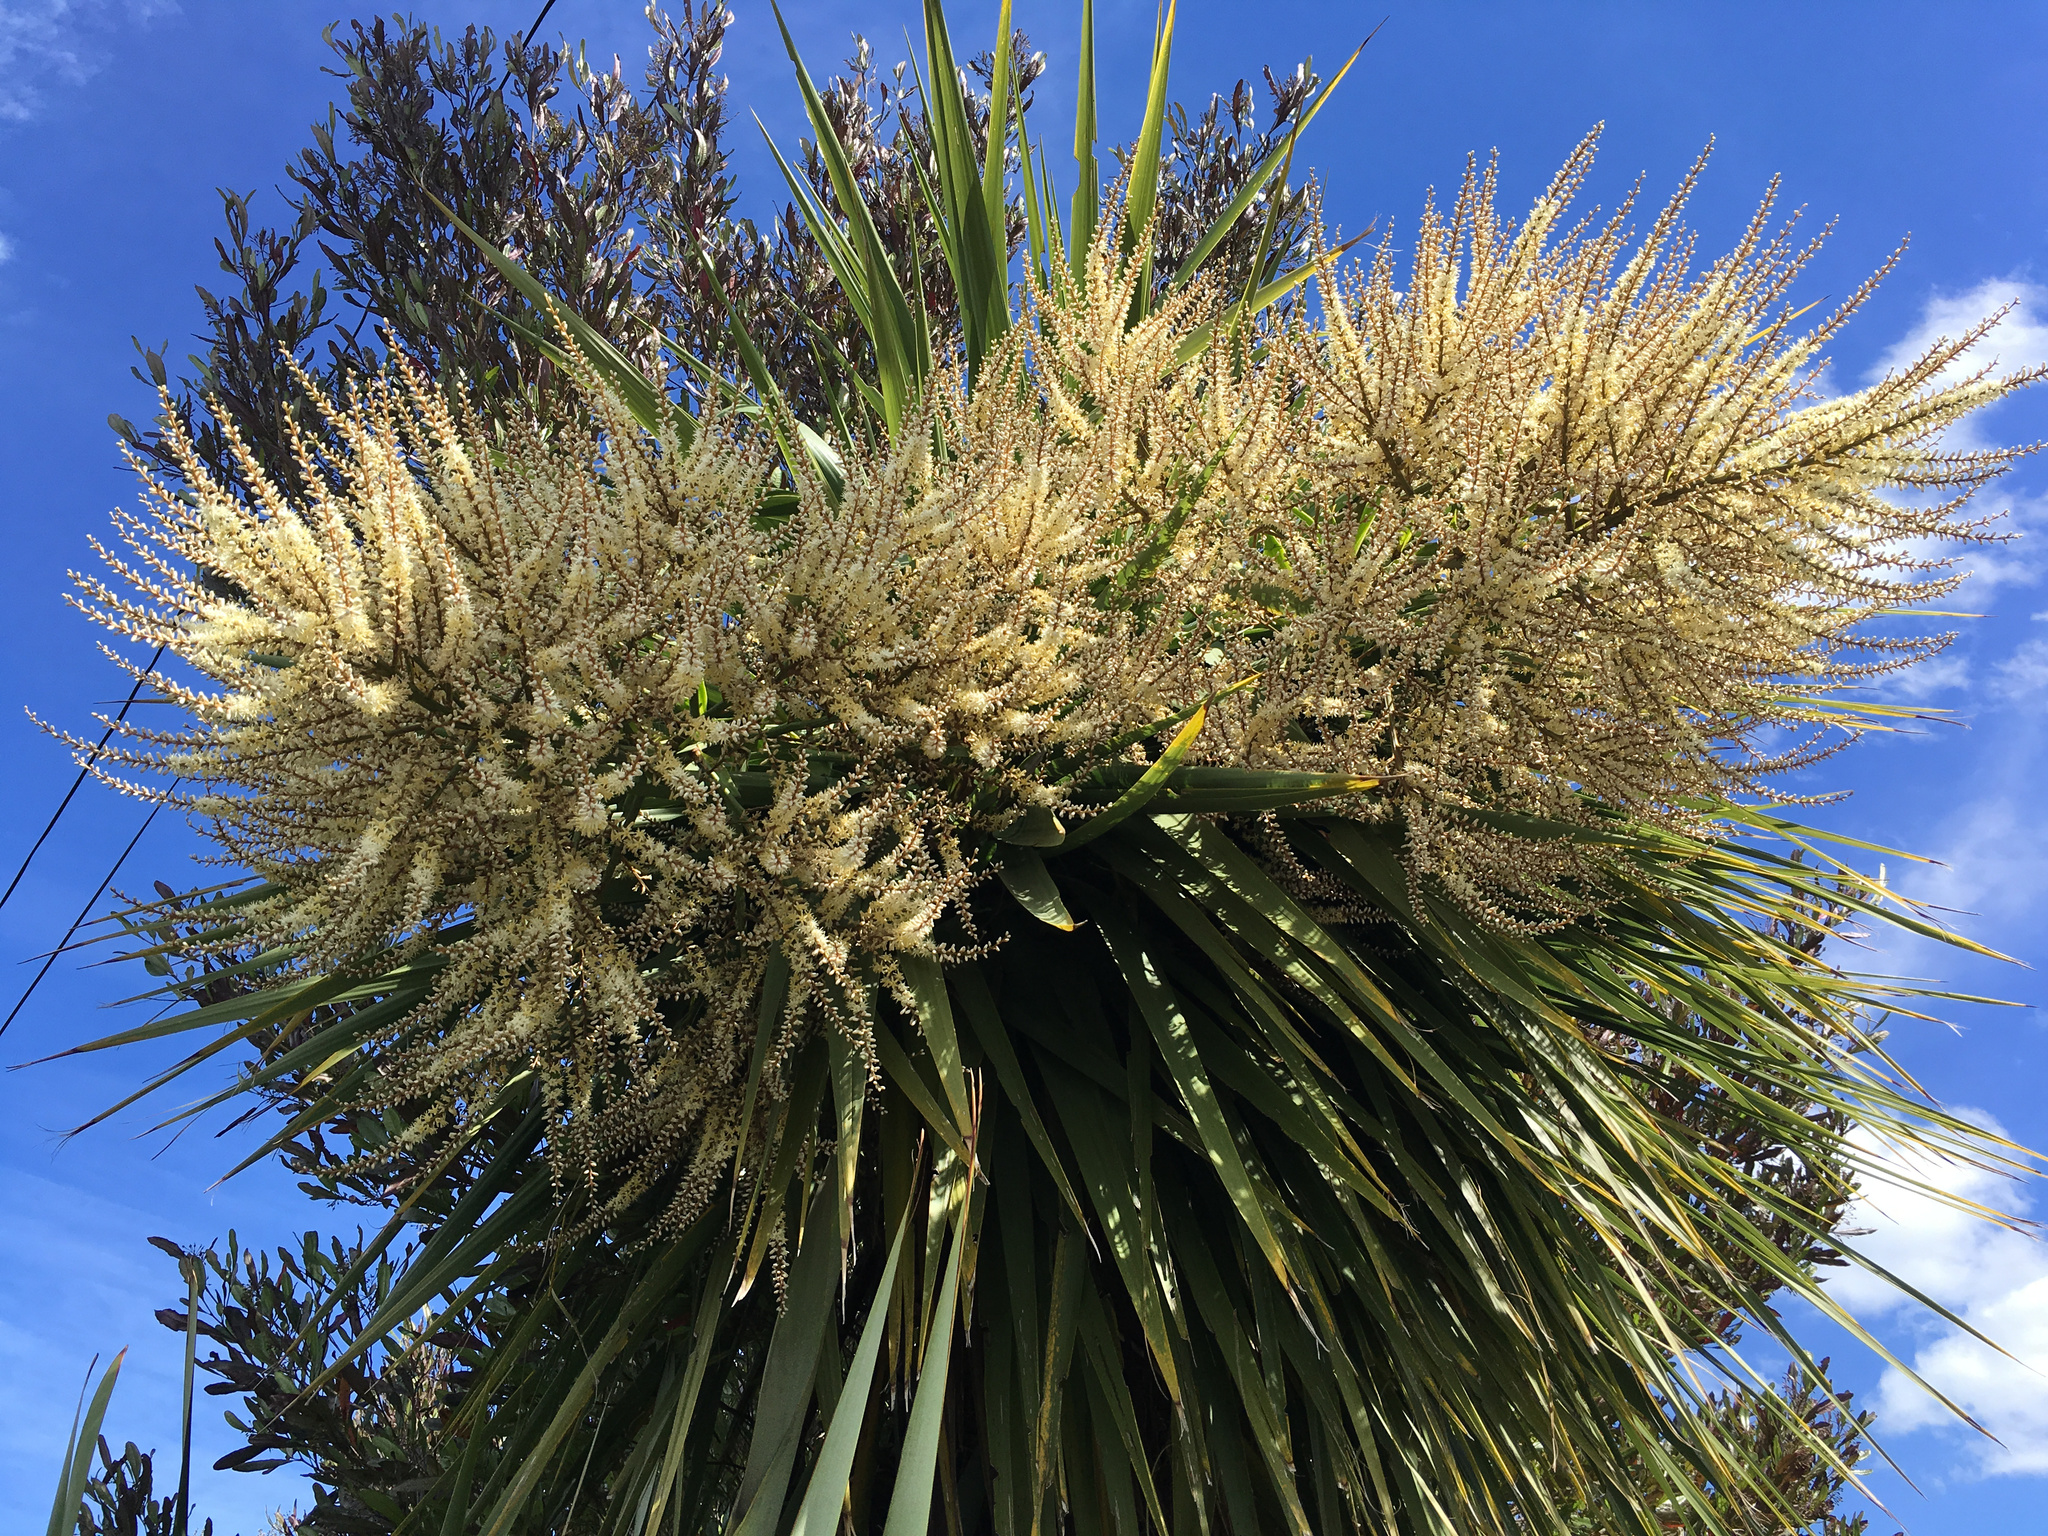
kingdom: Plantae
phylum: Tracheophyta
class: Liliopsida
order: Asparagales
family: Asparagaceae
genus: Cordyline
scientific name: Cordyline australis
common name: Cabbage-palm
